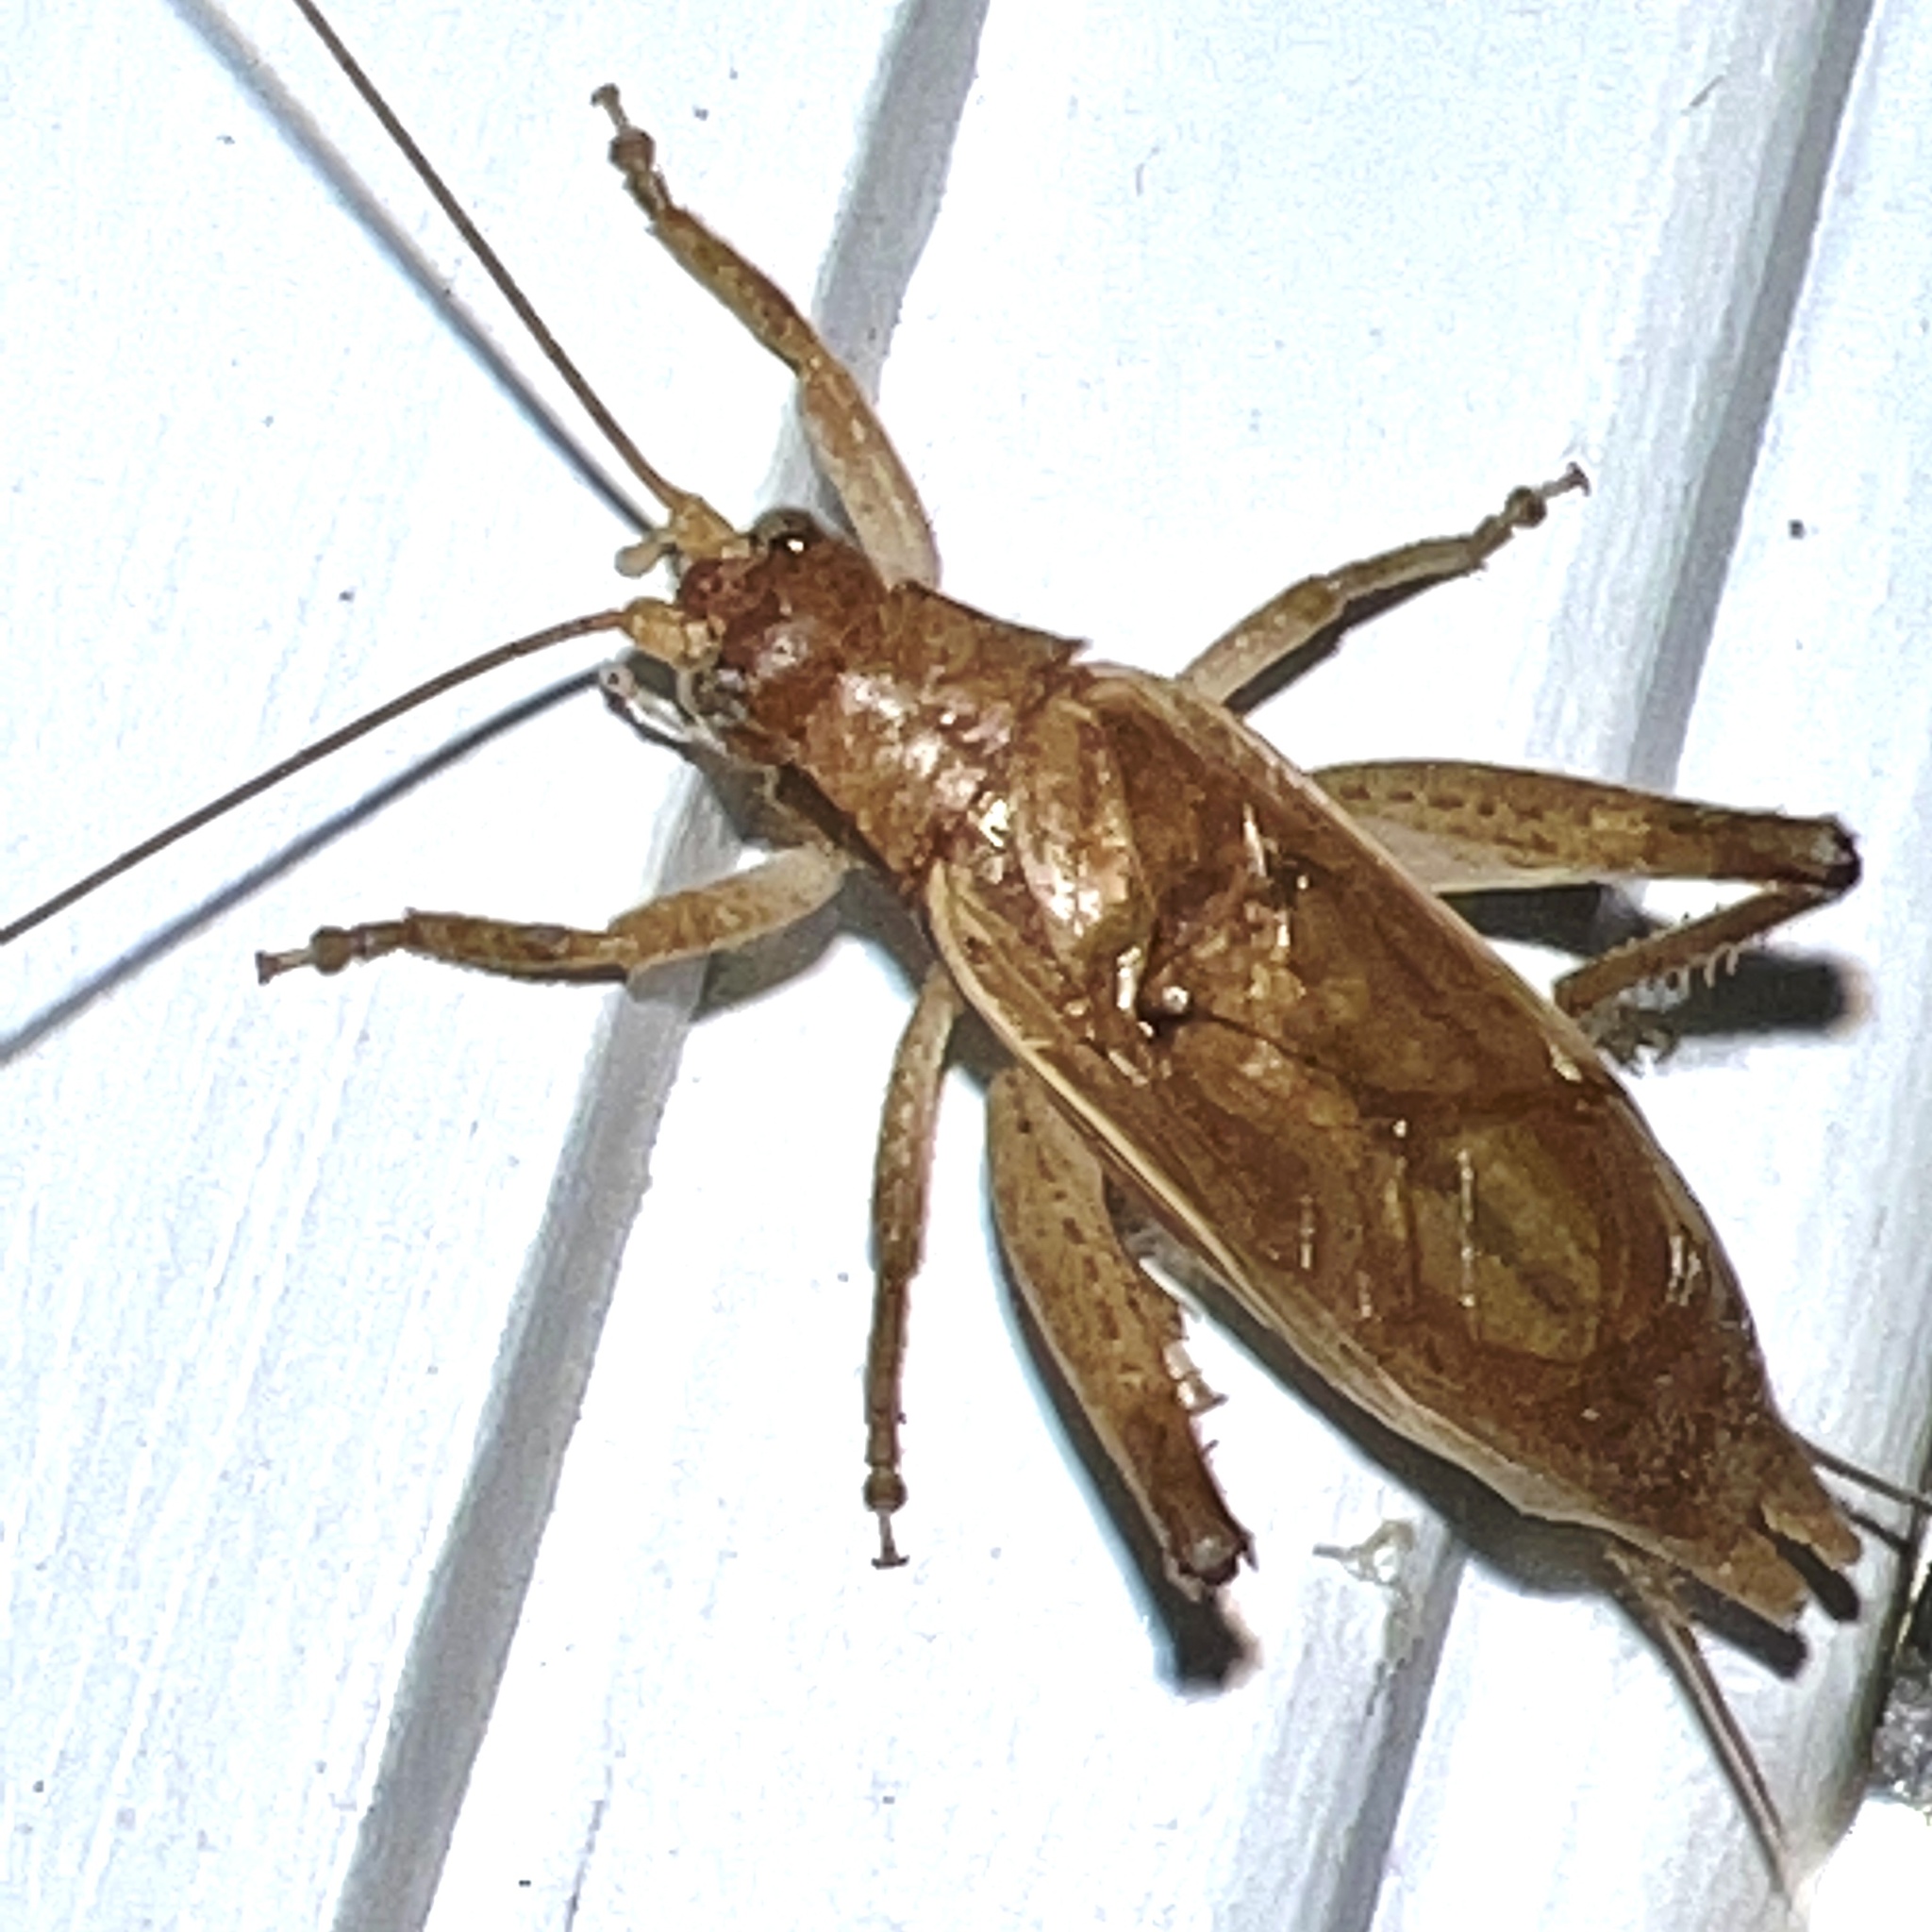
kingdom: Animalia
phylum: Arthropoda
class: Insecta
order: Orthoptera
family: Gryllidae
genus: Hapithus
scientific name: Hapithus saltator
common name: Jumping bush cricket
